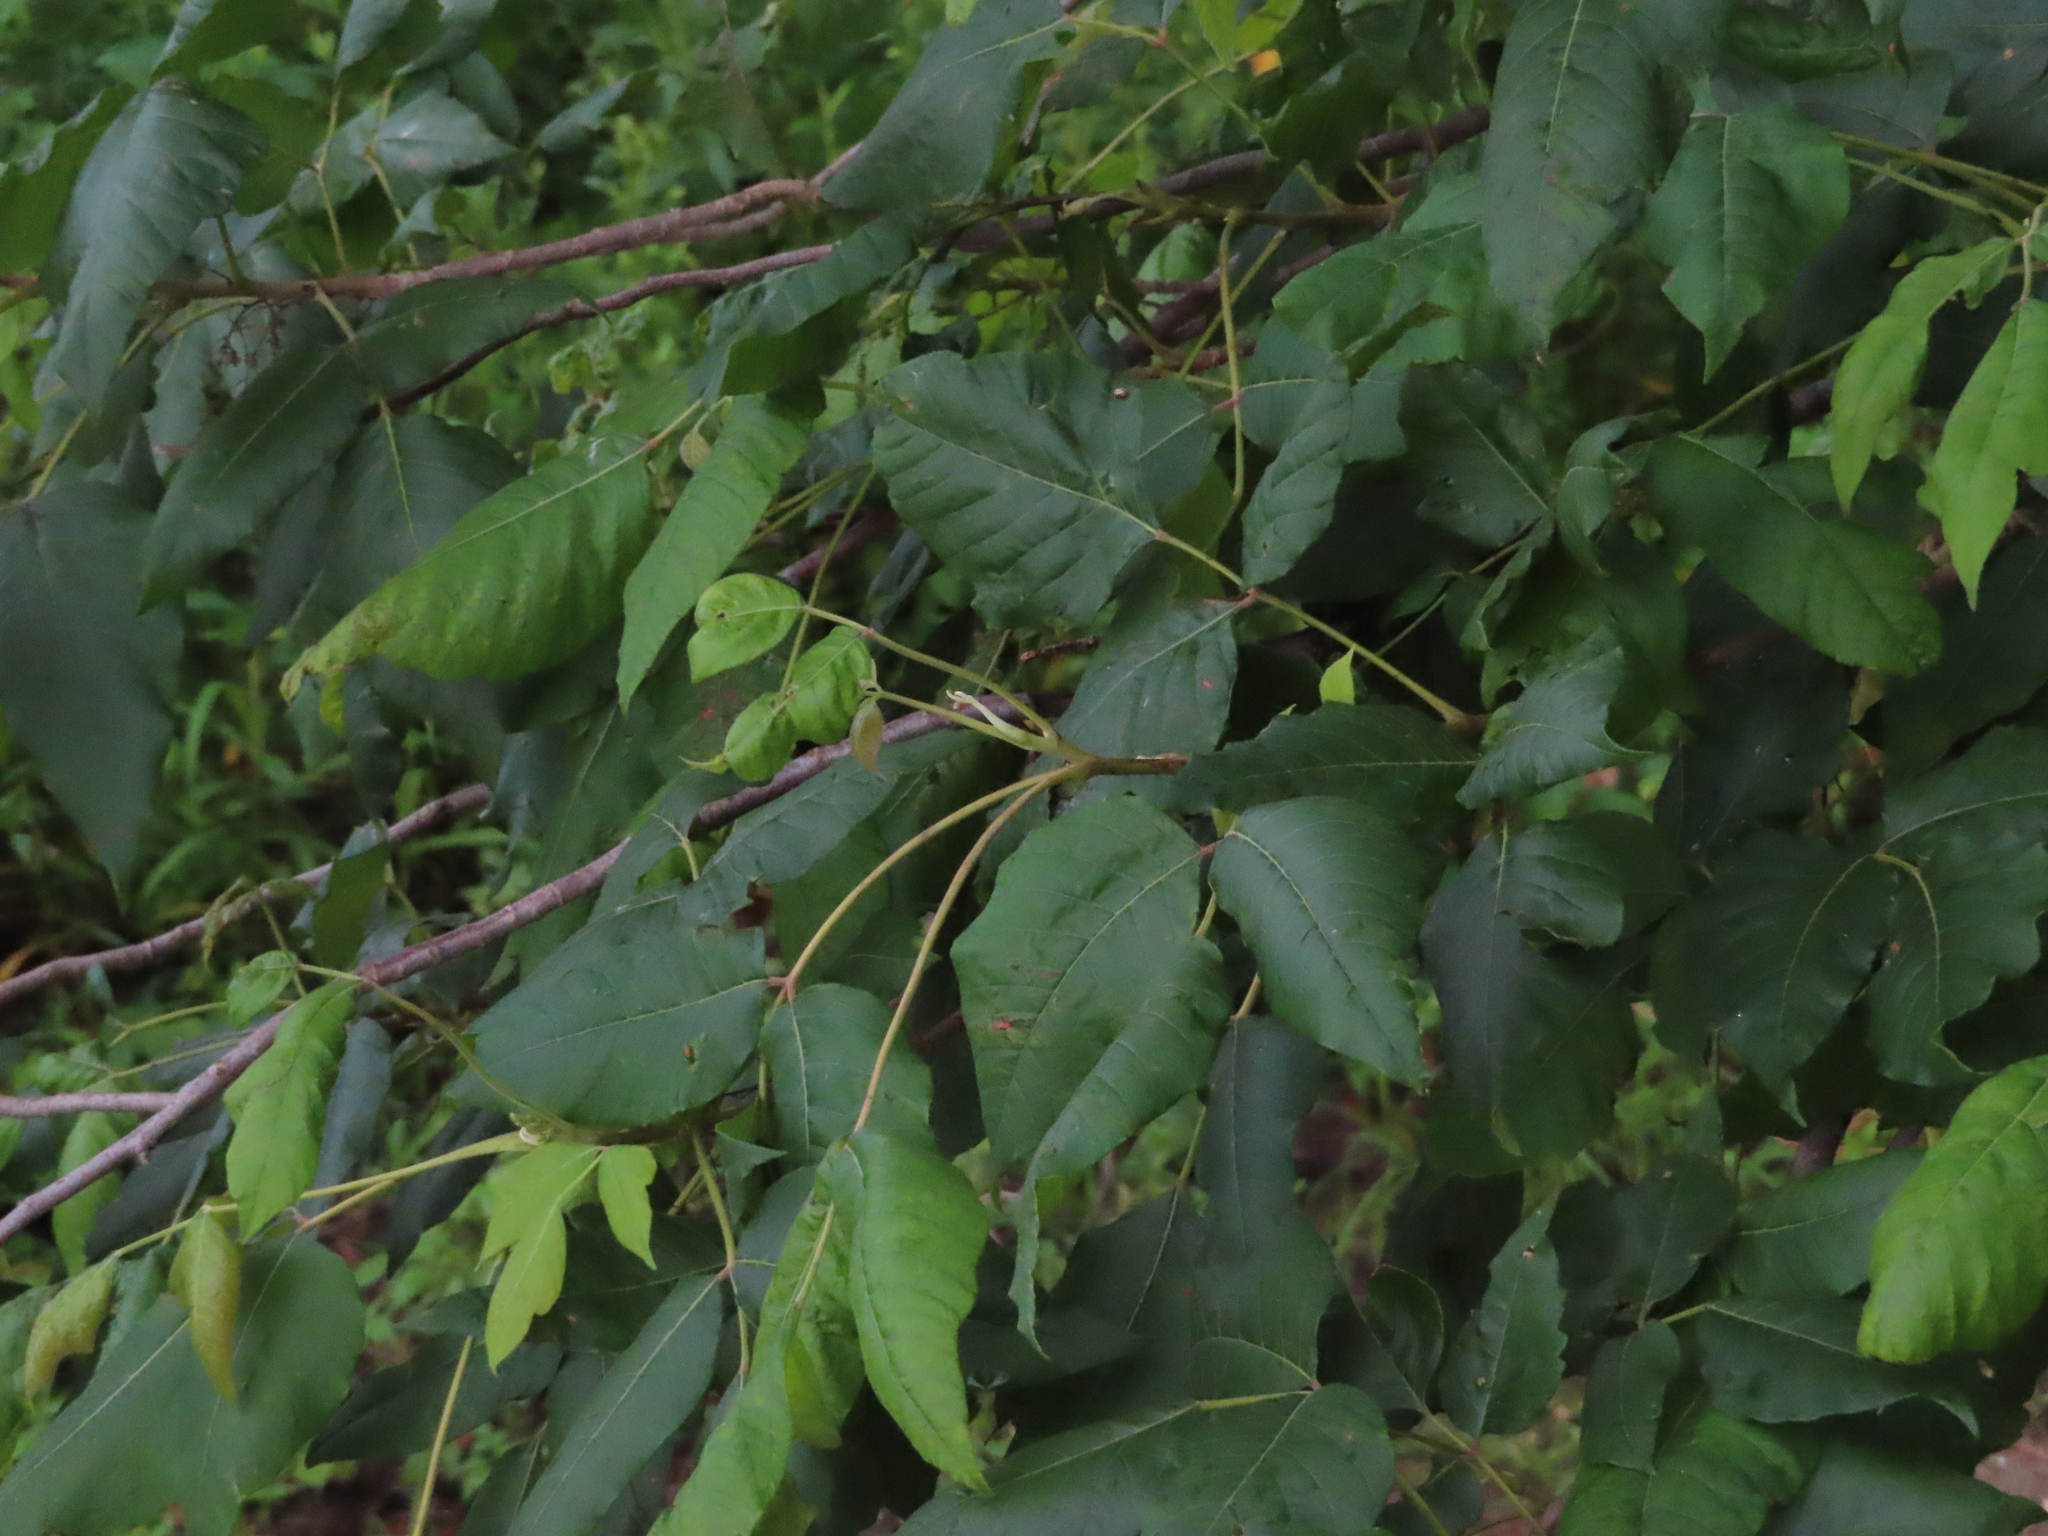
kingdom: Plantae
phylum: Tracheophyta
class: Magnoliopsida
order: Sapindales
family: Anacardiaceae
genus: Toxicodendron
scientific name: Toxicodendron radicans
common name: Poison ivy
